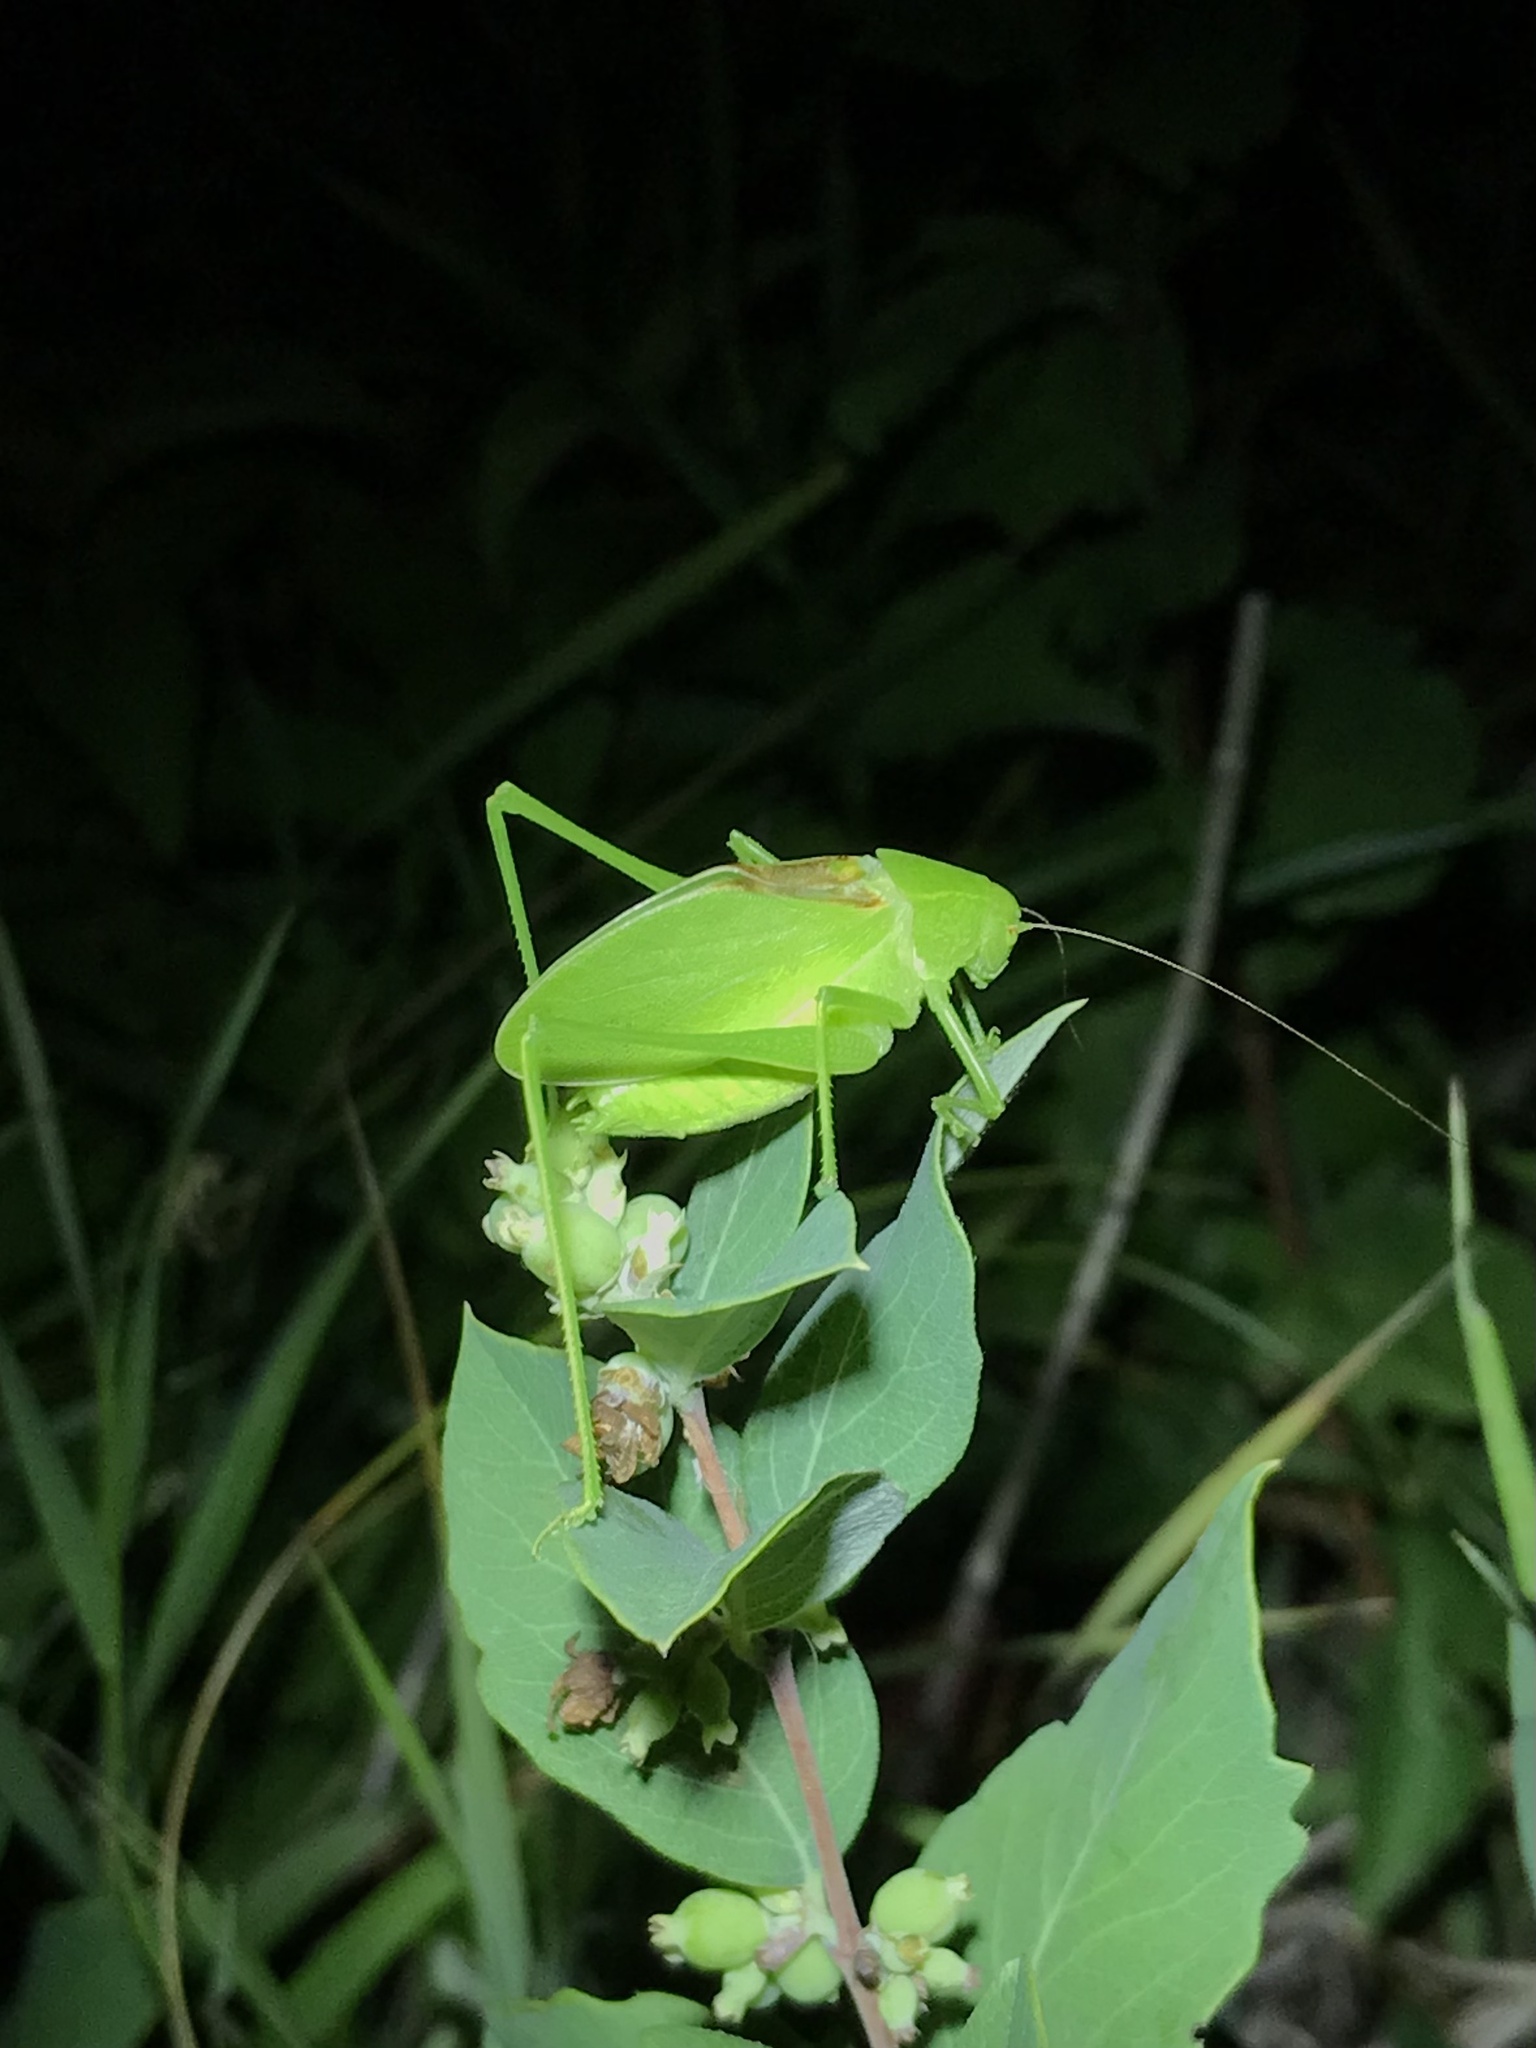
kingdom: Animalia
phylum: Arthropoda
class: Insecta
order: Orthoptera
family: Tettigoniidae
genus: Amblycorypha
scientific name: Amblycorypha parvipennis
